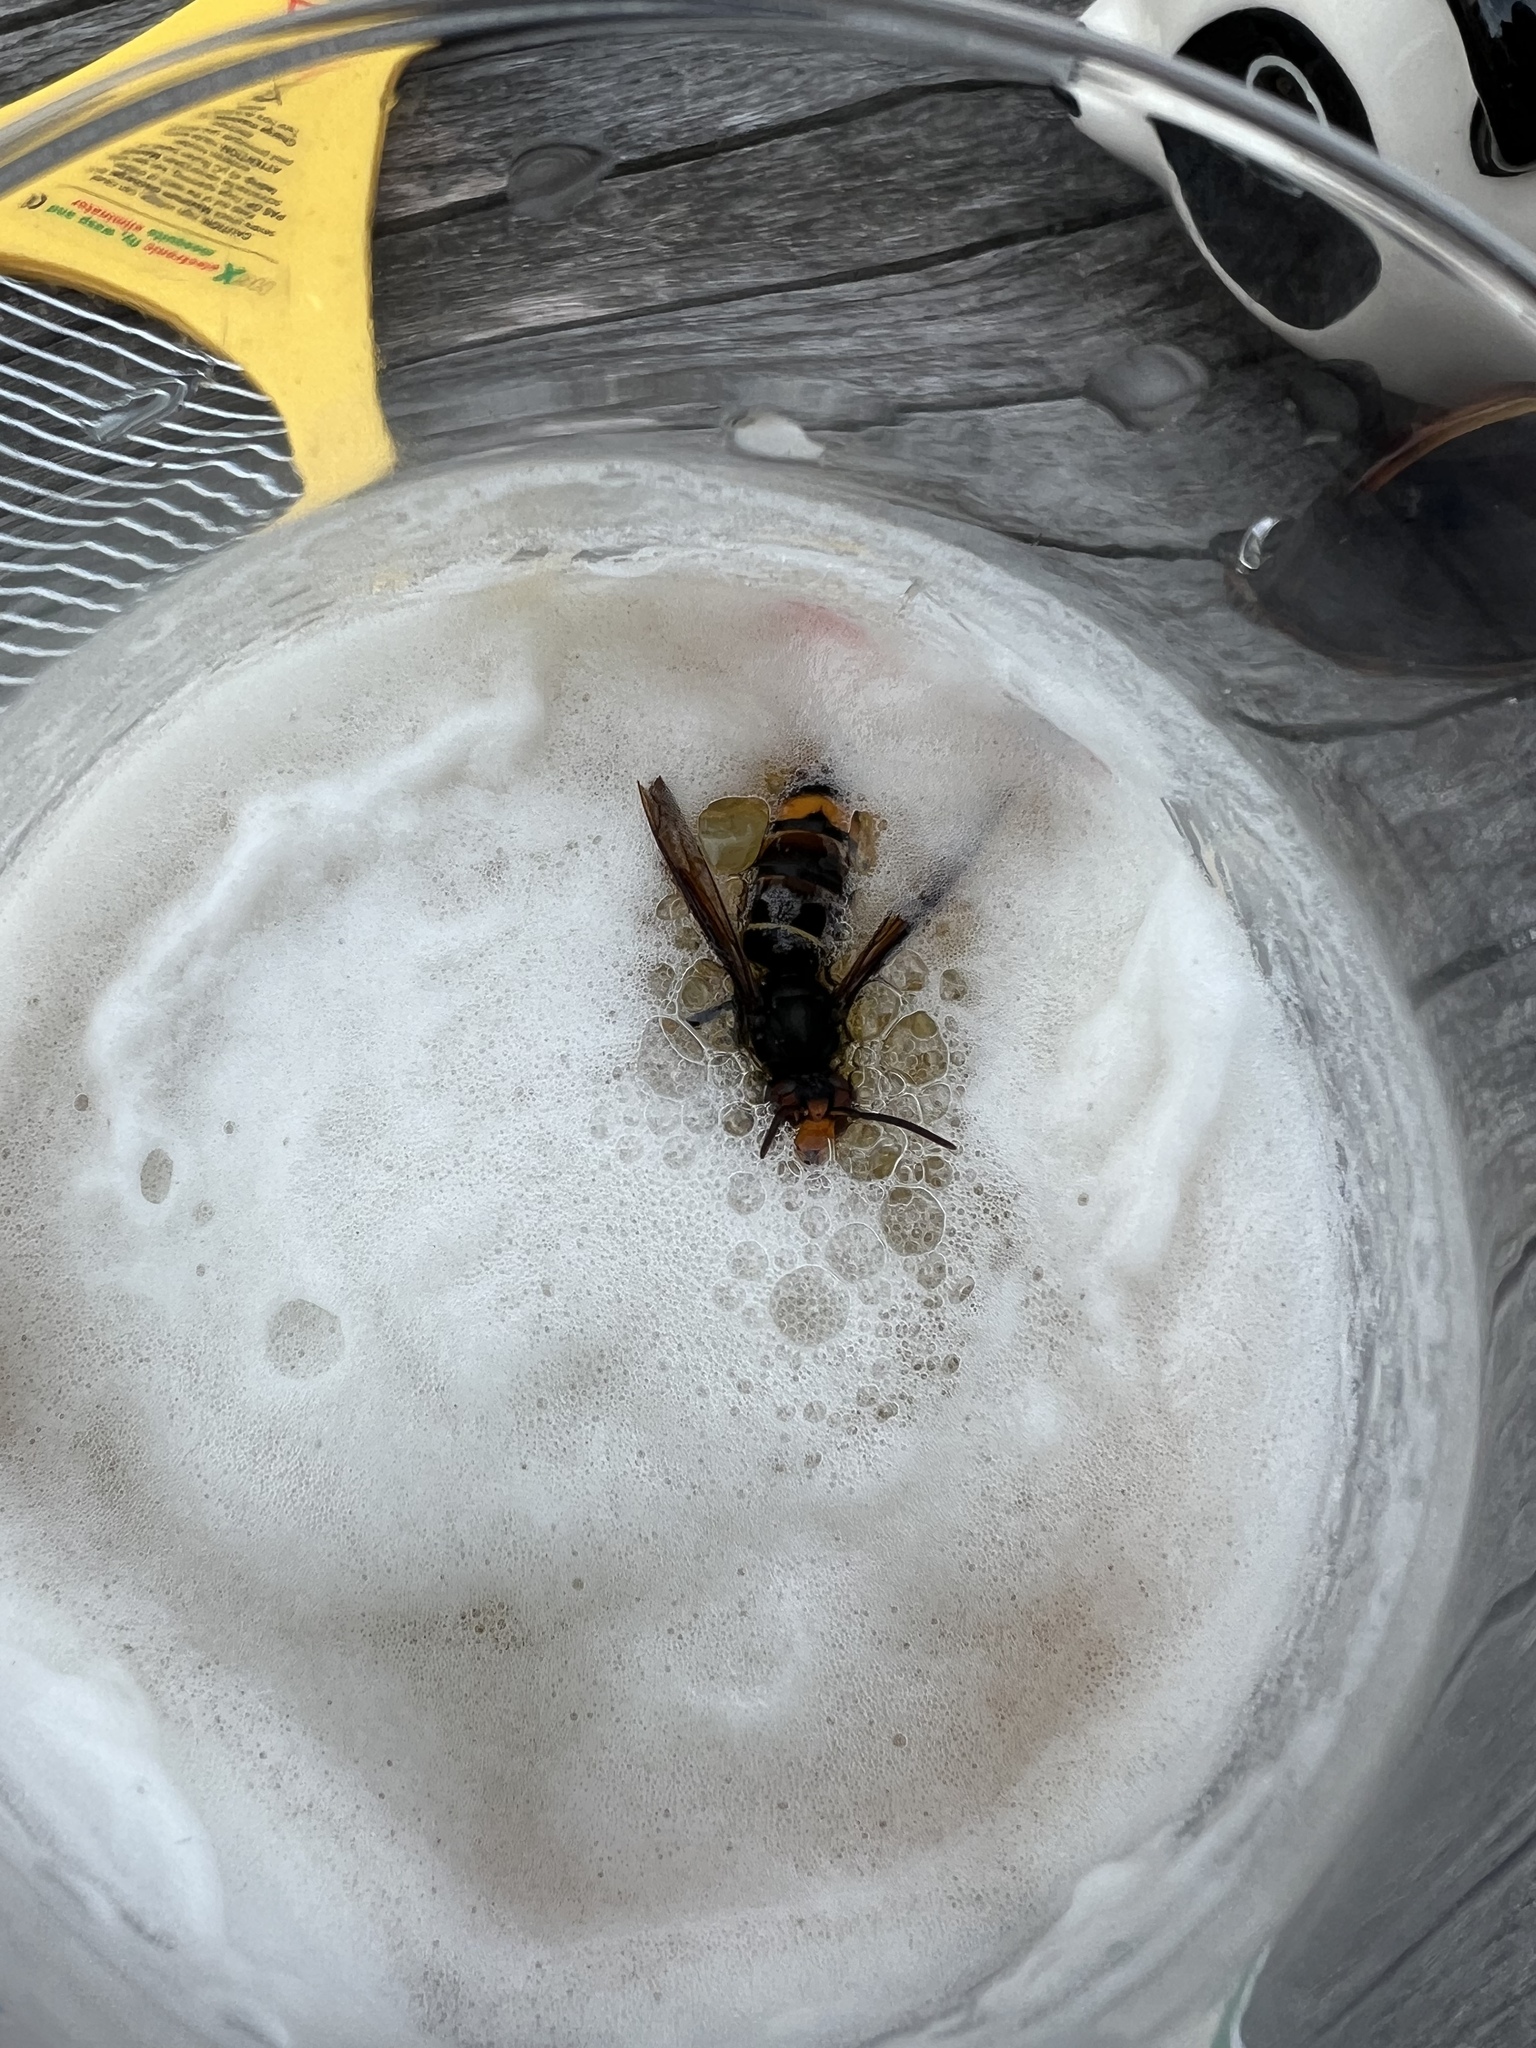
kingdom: Animalia
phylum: Arthropoda
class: Insecta
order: Hymenoptera
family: Vespidae
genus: Vespa
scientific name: Vespa velutina
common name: Asian hornet
